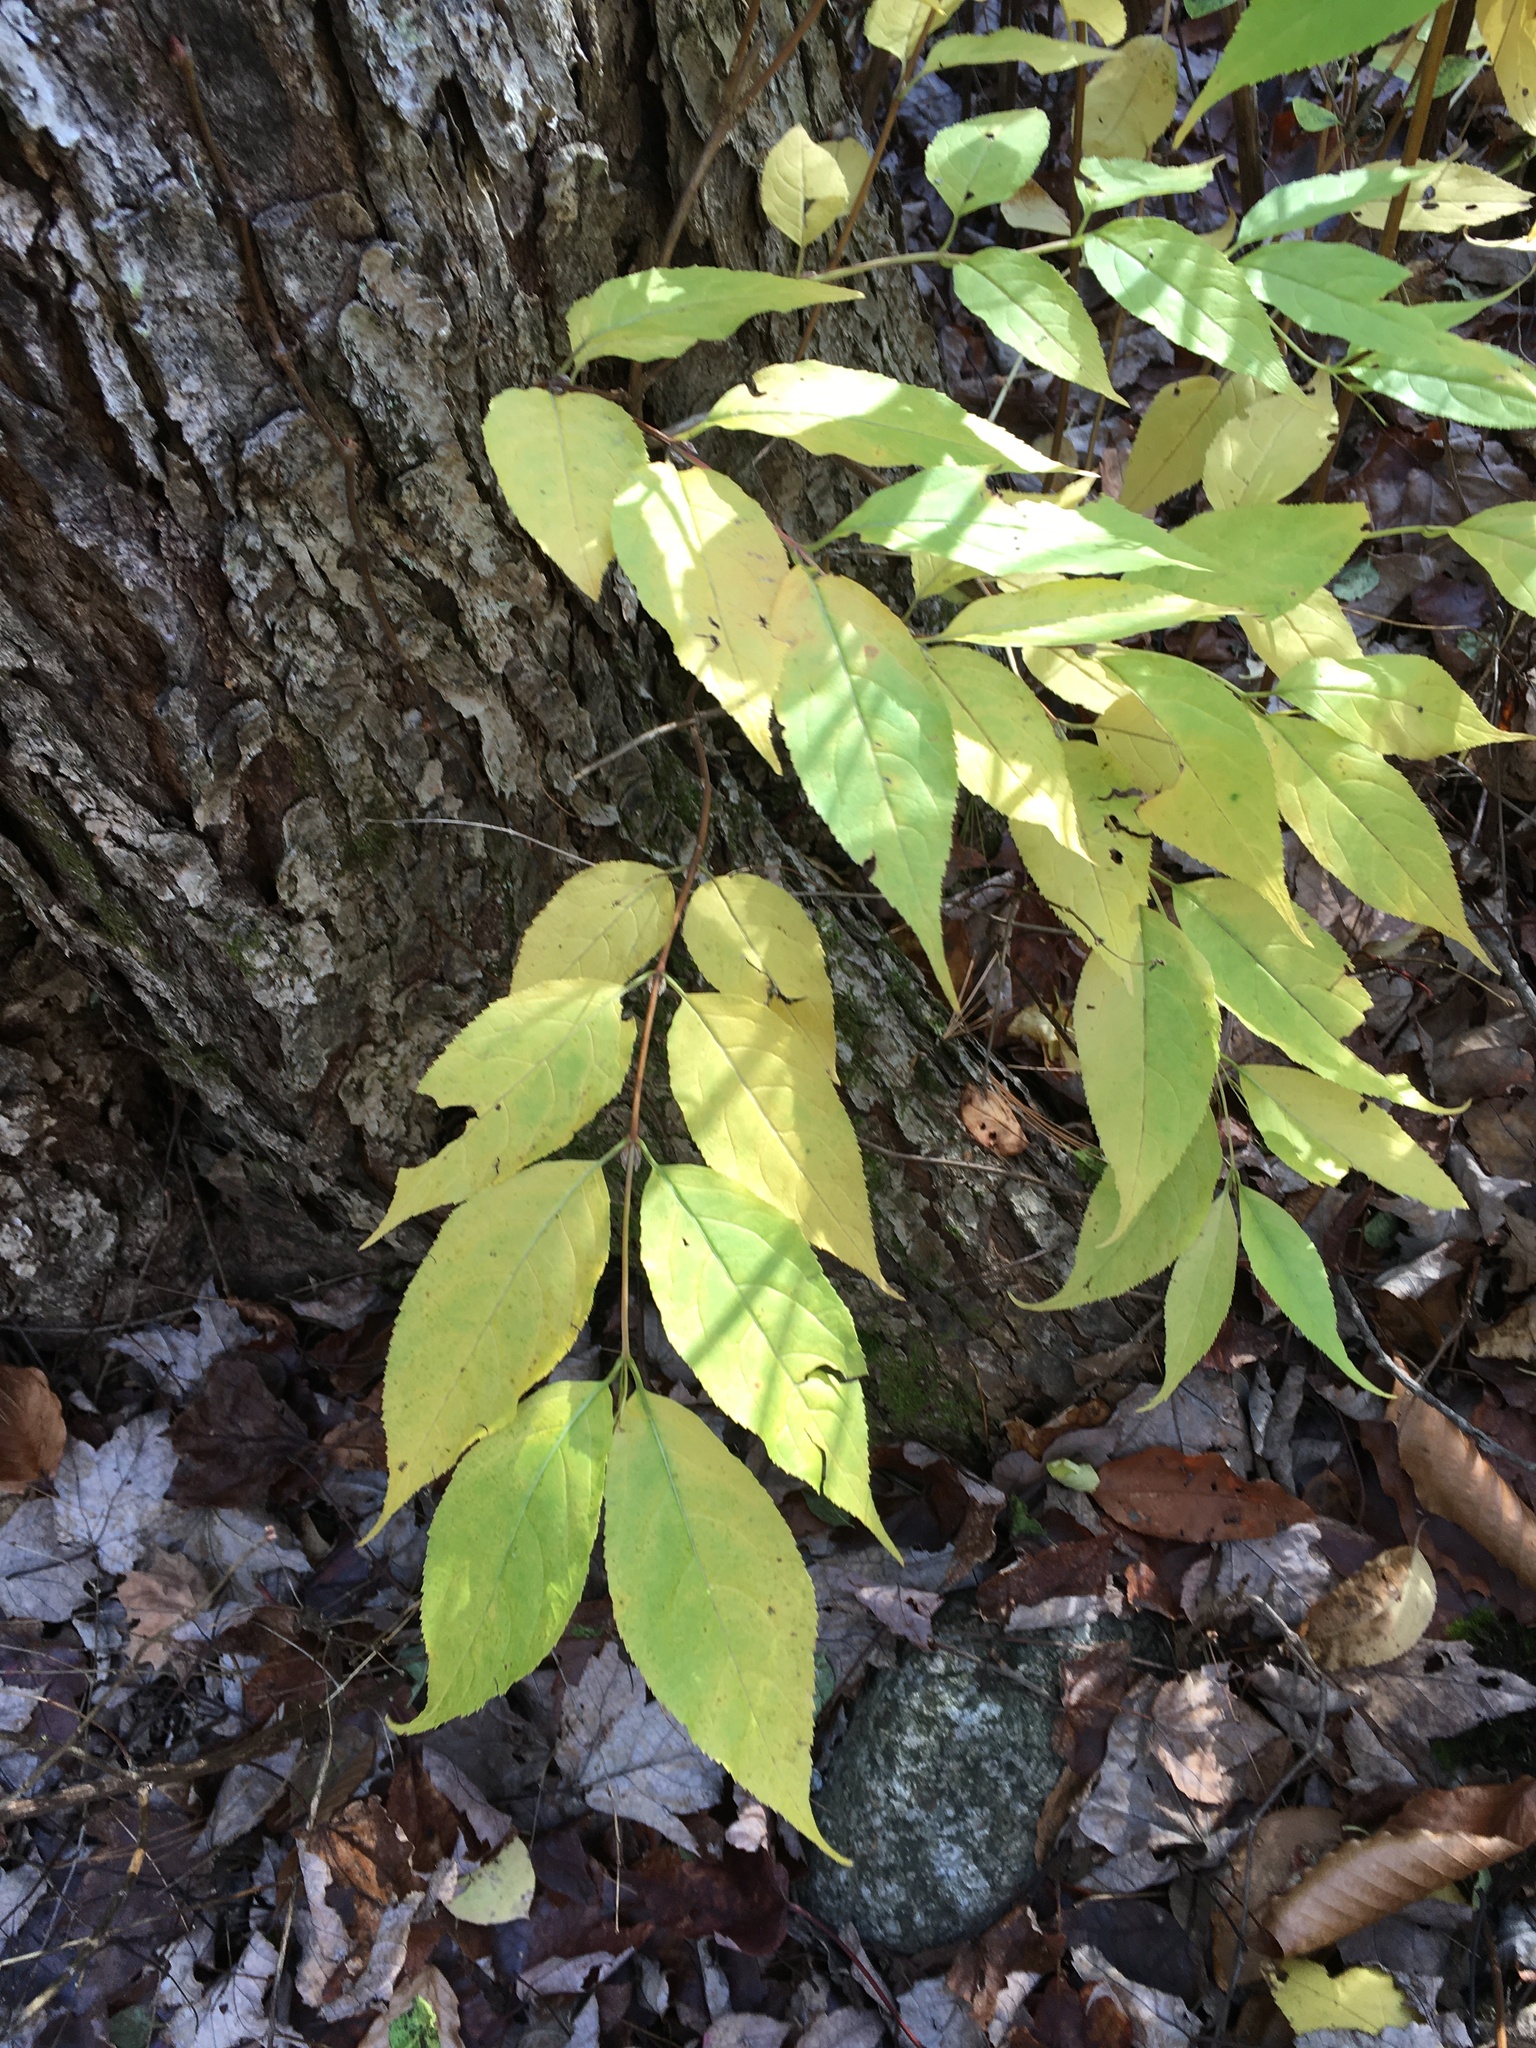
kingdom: Plantae
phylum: Tracheophyta
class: Magnoliopsida
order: Dipsacales
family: Caprifoliaceae
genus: Diervilla
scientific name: Diervilla lonicera
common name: Bush-honeysuckle
